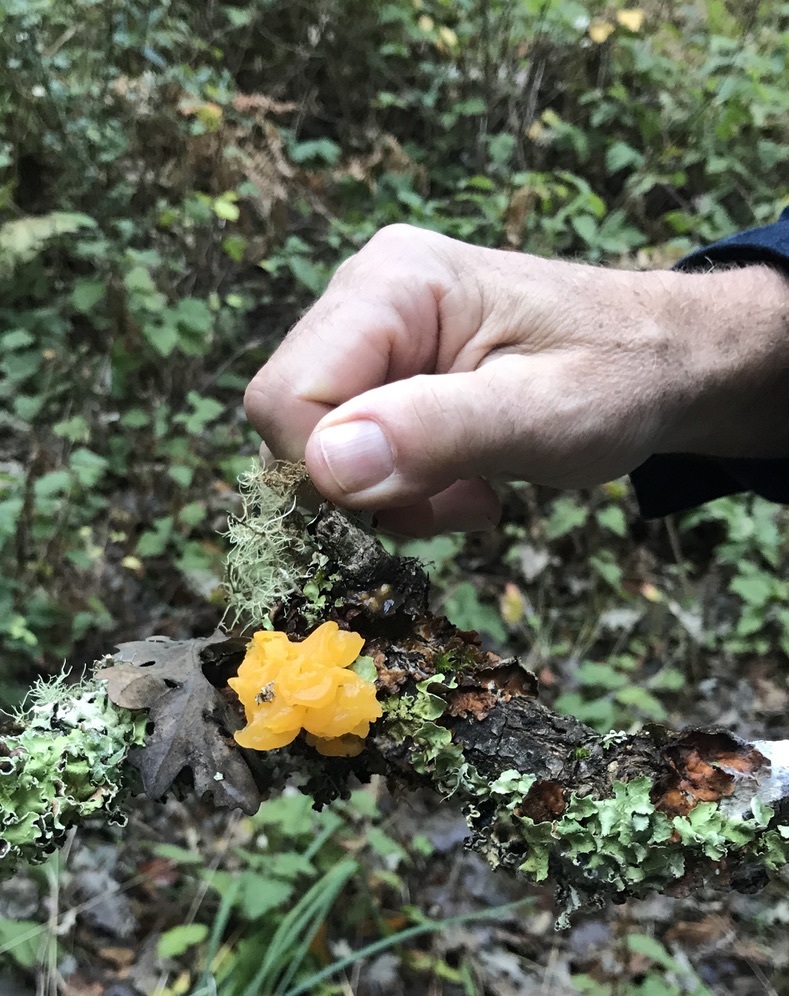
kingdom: Fungi
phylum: Basidiomycota
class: Tremellomycetes
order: Tremellales
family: Tremellaceae
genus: Tremella
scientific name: Tremella mesenterica
